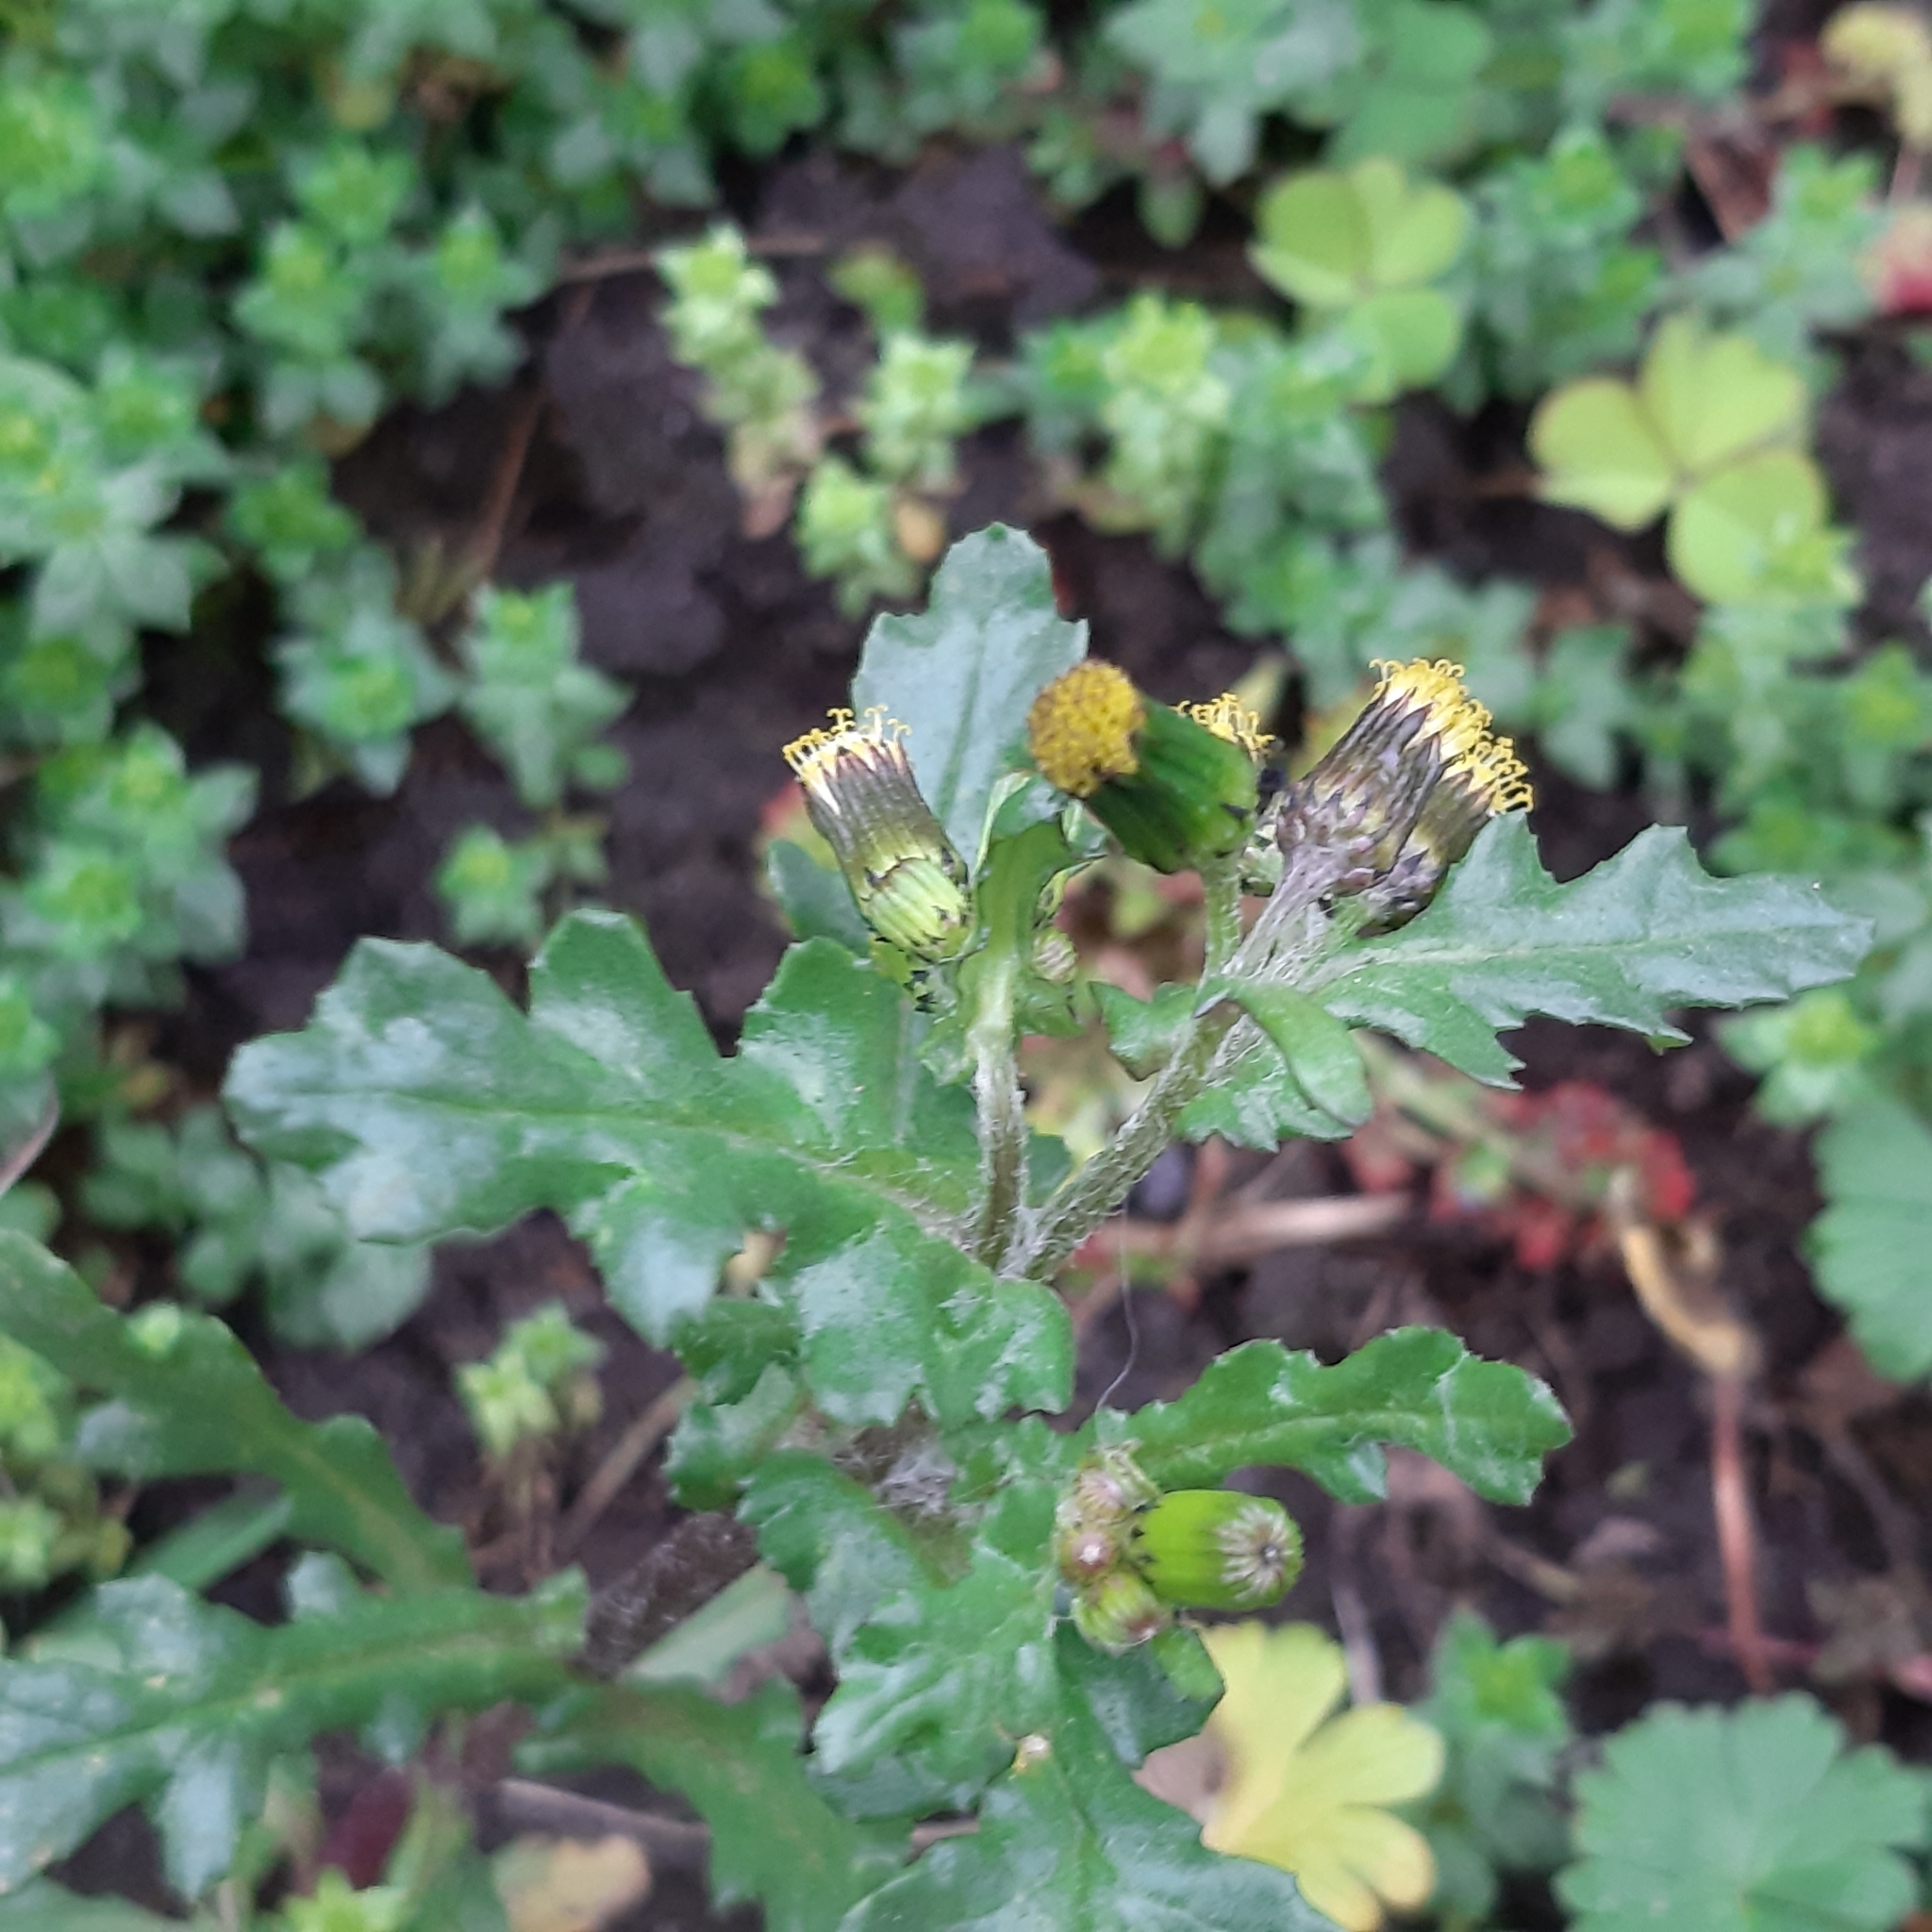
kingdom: Plantae
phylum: Tracheophyta
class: Magnoliopsida
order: Asterales
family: Asteraceae
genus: Senecio
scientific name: Senecio vulgaris
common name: Old-man-in-the-spring
